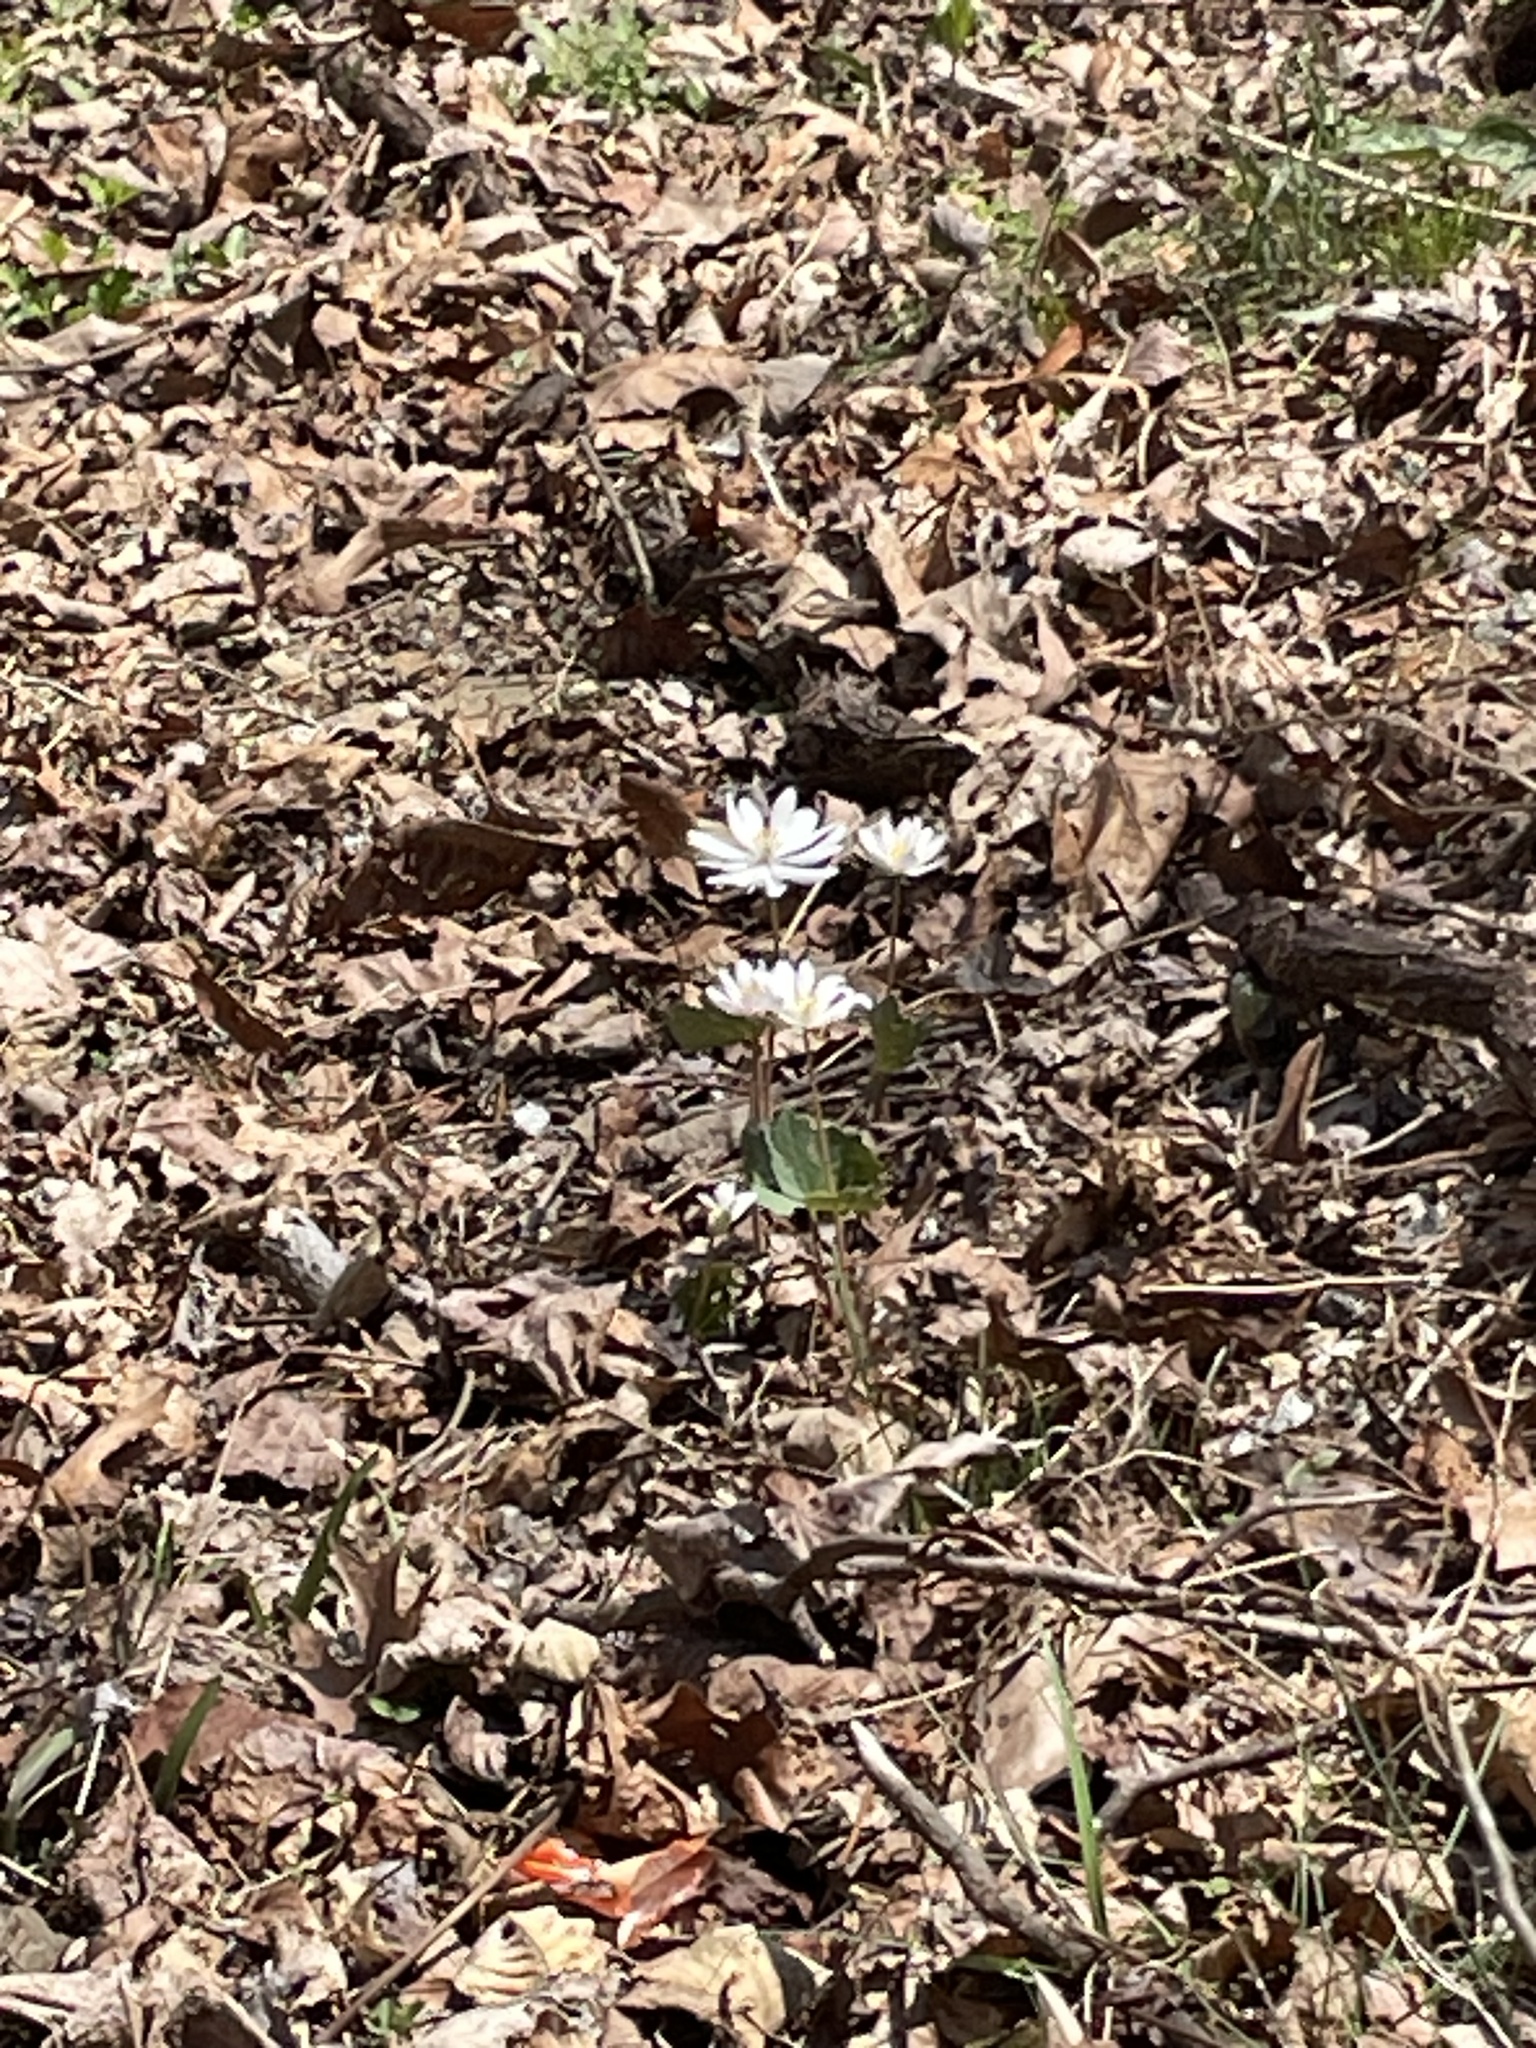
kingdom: Plantae
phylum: Tracheophyta
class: Magnoliopsida
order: Ranunculales
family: Papaveraceae
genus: Sanguinaria
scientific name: Sanguinaria canadensis
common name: Bloodroot
